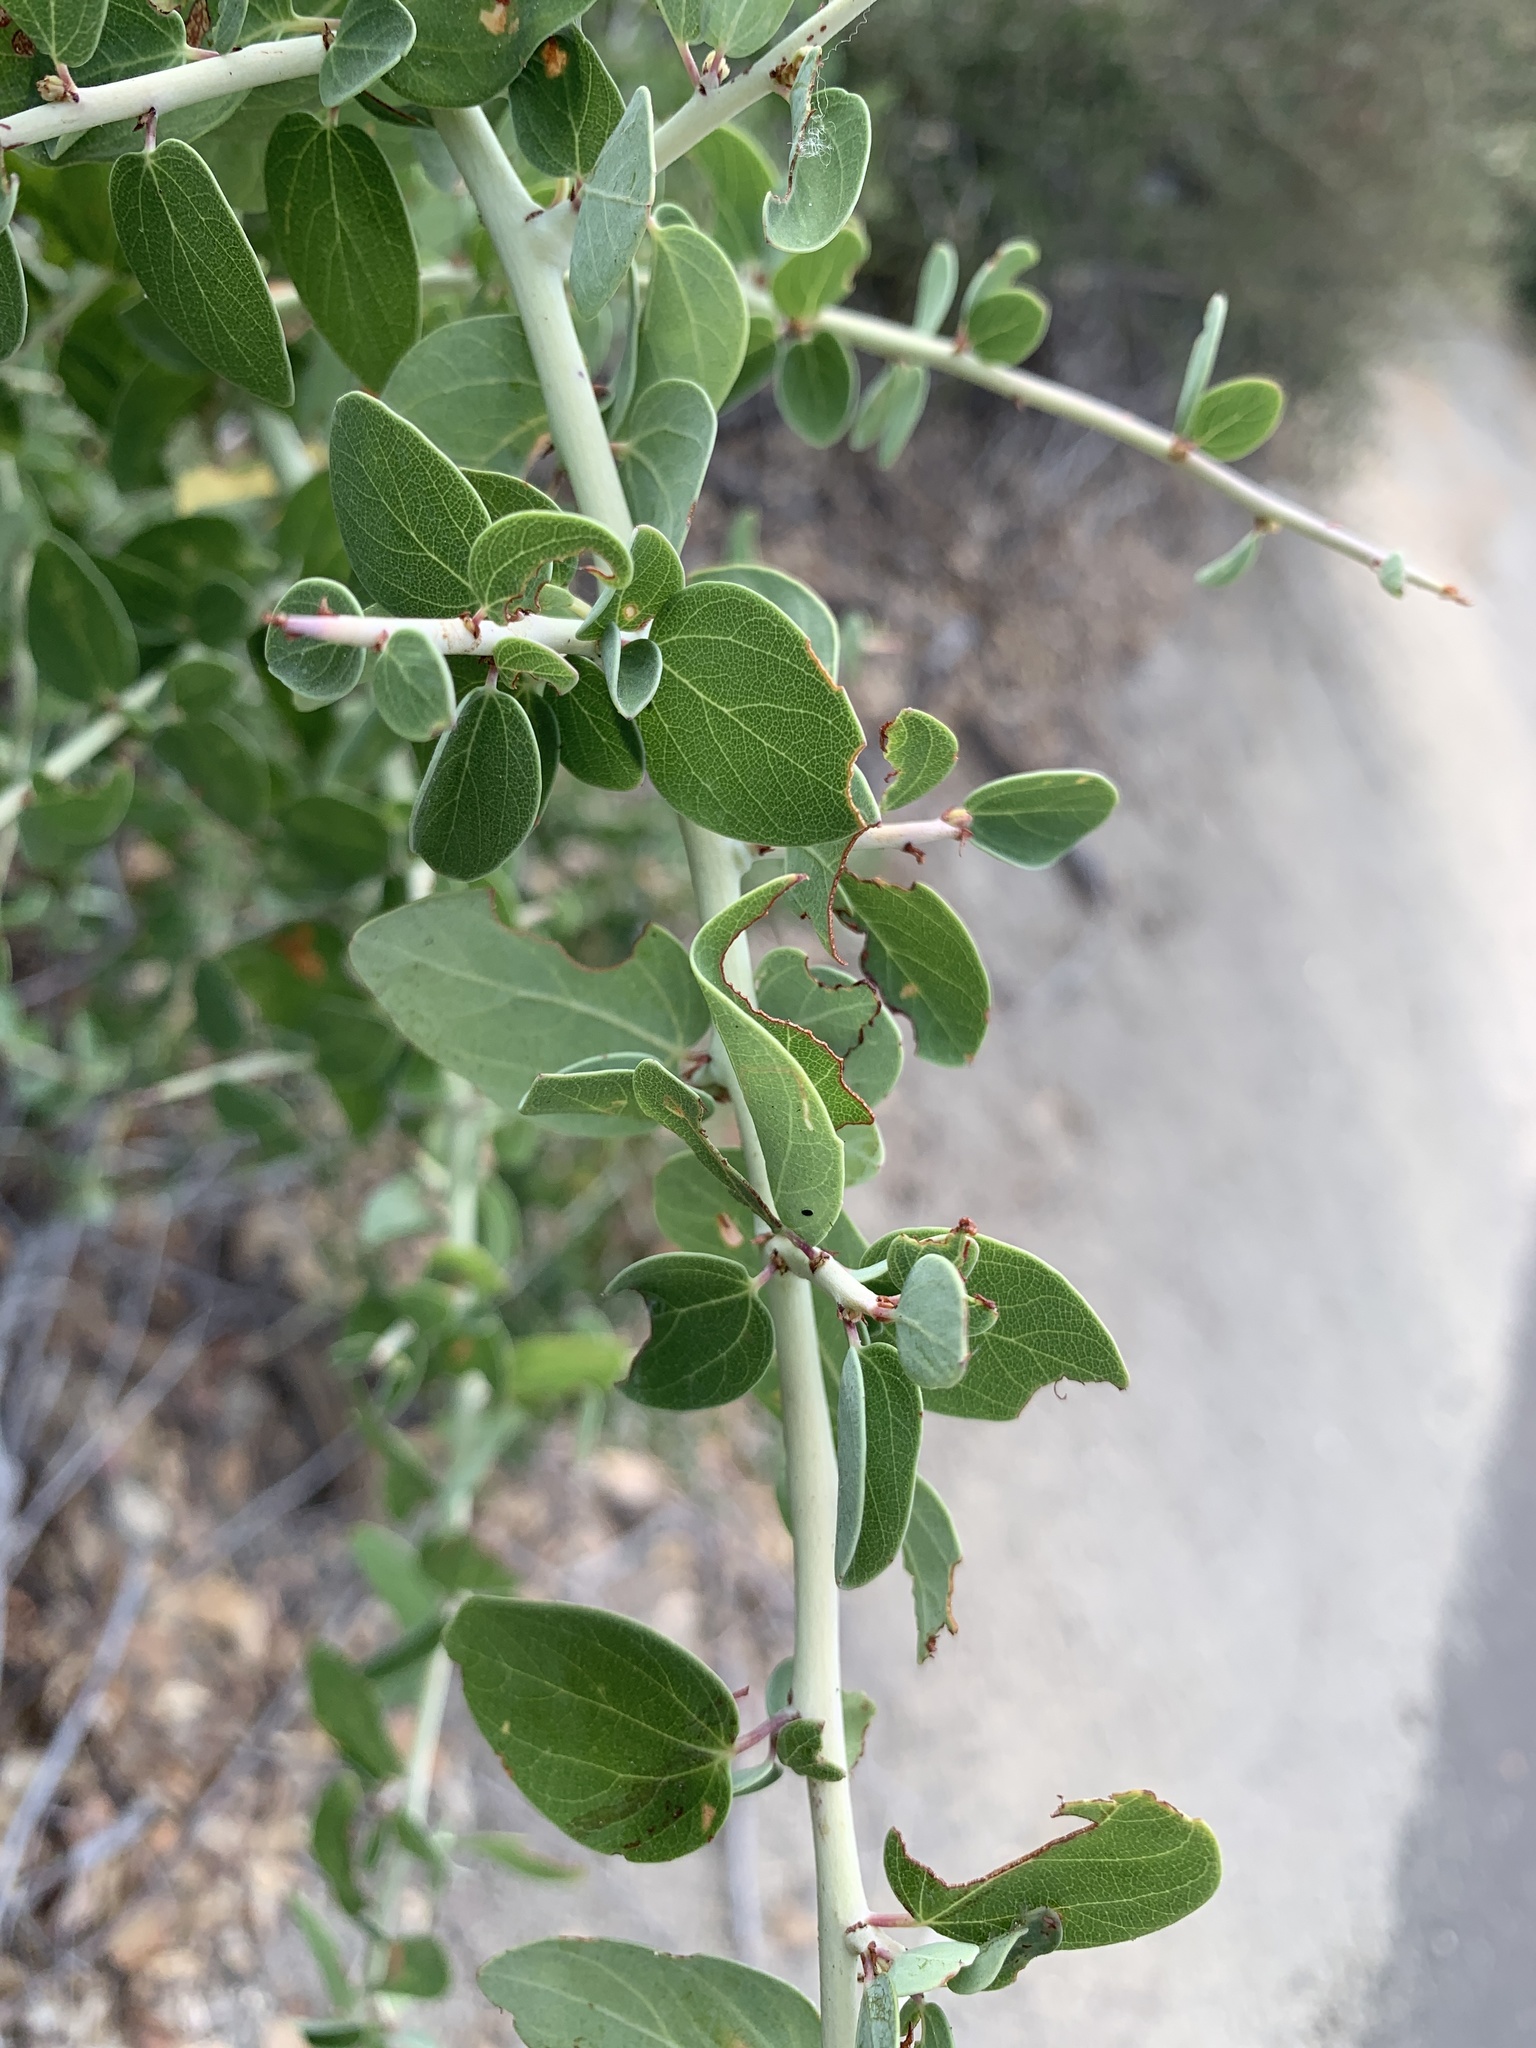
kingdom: Plantae
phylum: Tracheophyta
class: Magnoliopsida
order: Rosales
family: Rhamnaceae
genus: Ceanothus
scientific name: Ceanothus leucodermis
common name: Chaparral whitethorn
